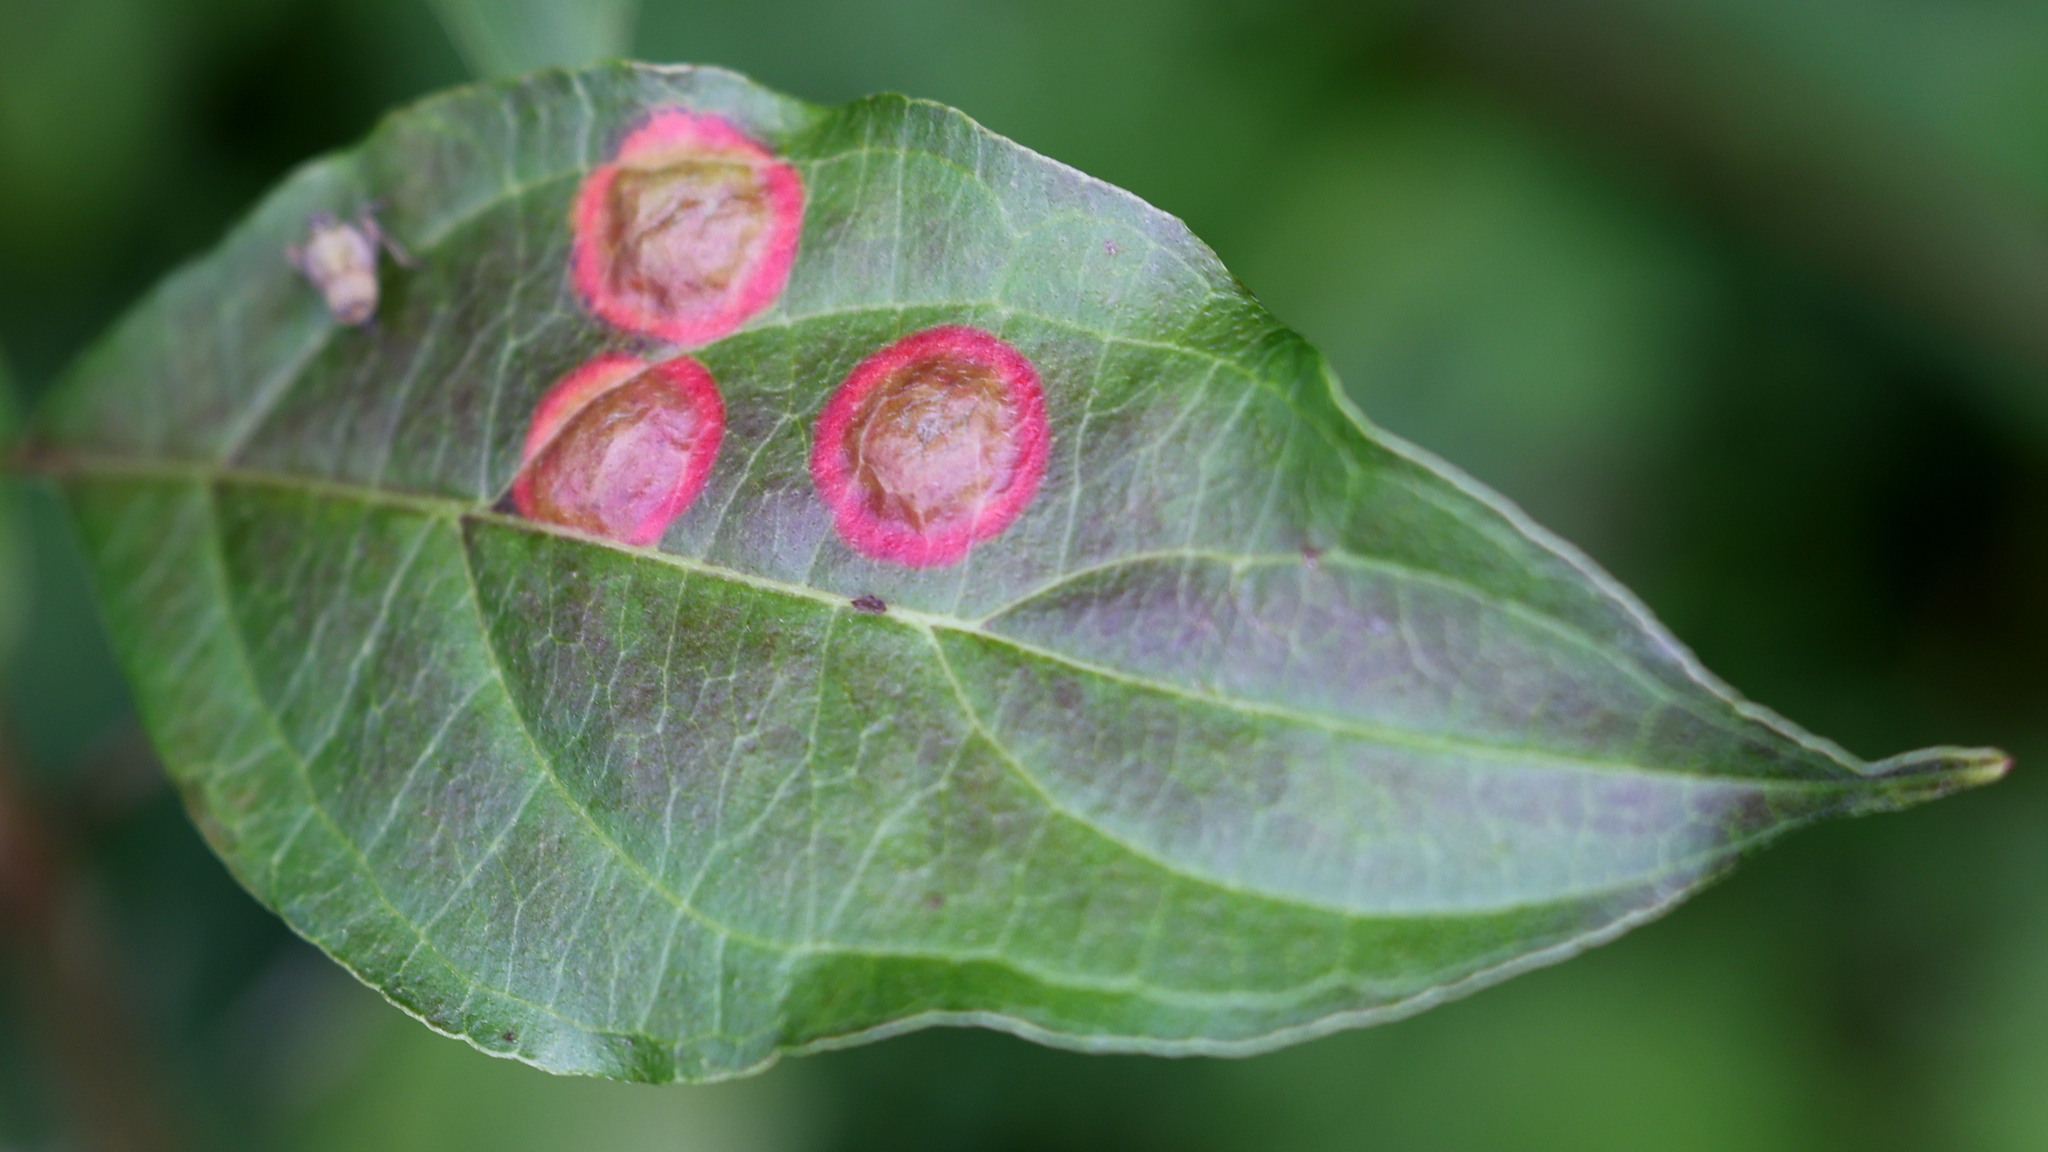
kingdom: Animalia
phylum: Arthropoda
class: Insecta
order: Diptera
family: Cecidomyiidae
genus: Parallelodiplosis
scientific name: Parallelodiplosis subtruncata
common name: Dogwood eyespot gall midge
